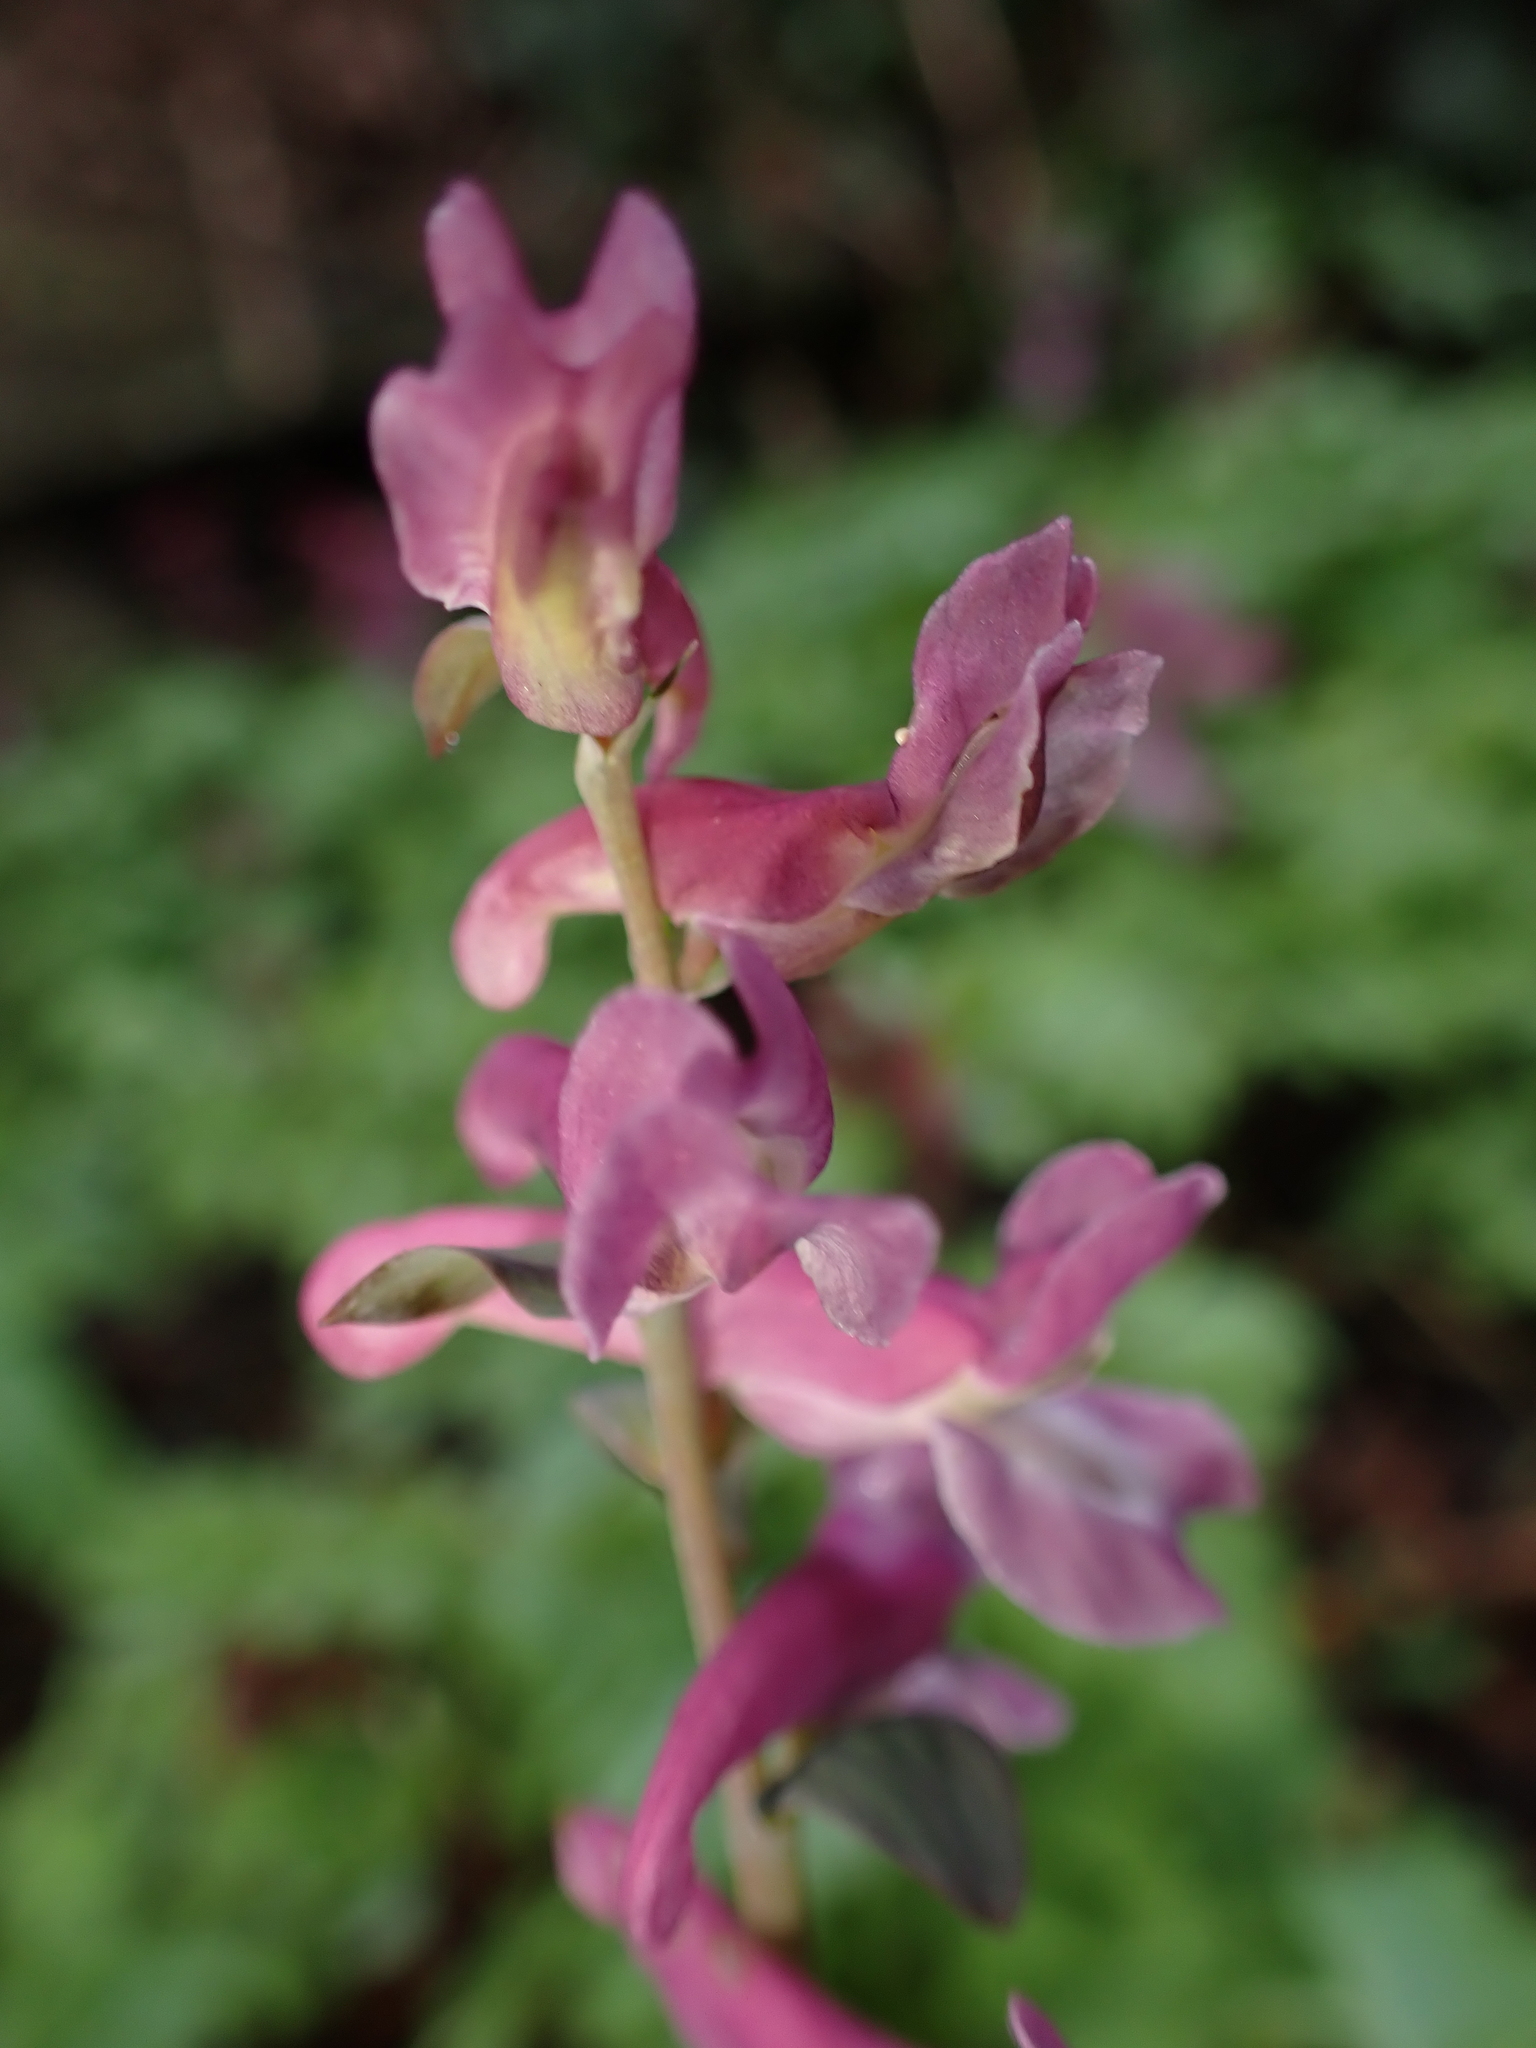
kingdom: Plantae
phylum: Tracheophyta
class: Magnoliopsida
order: Ranunculales
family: Papaveraceae
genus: Corydalis
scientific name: Corydalis cava
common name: Hollowroot
